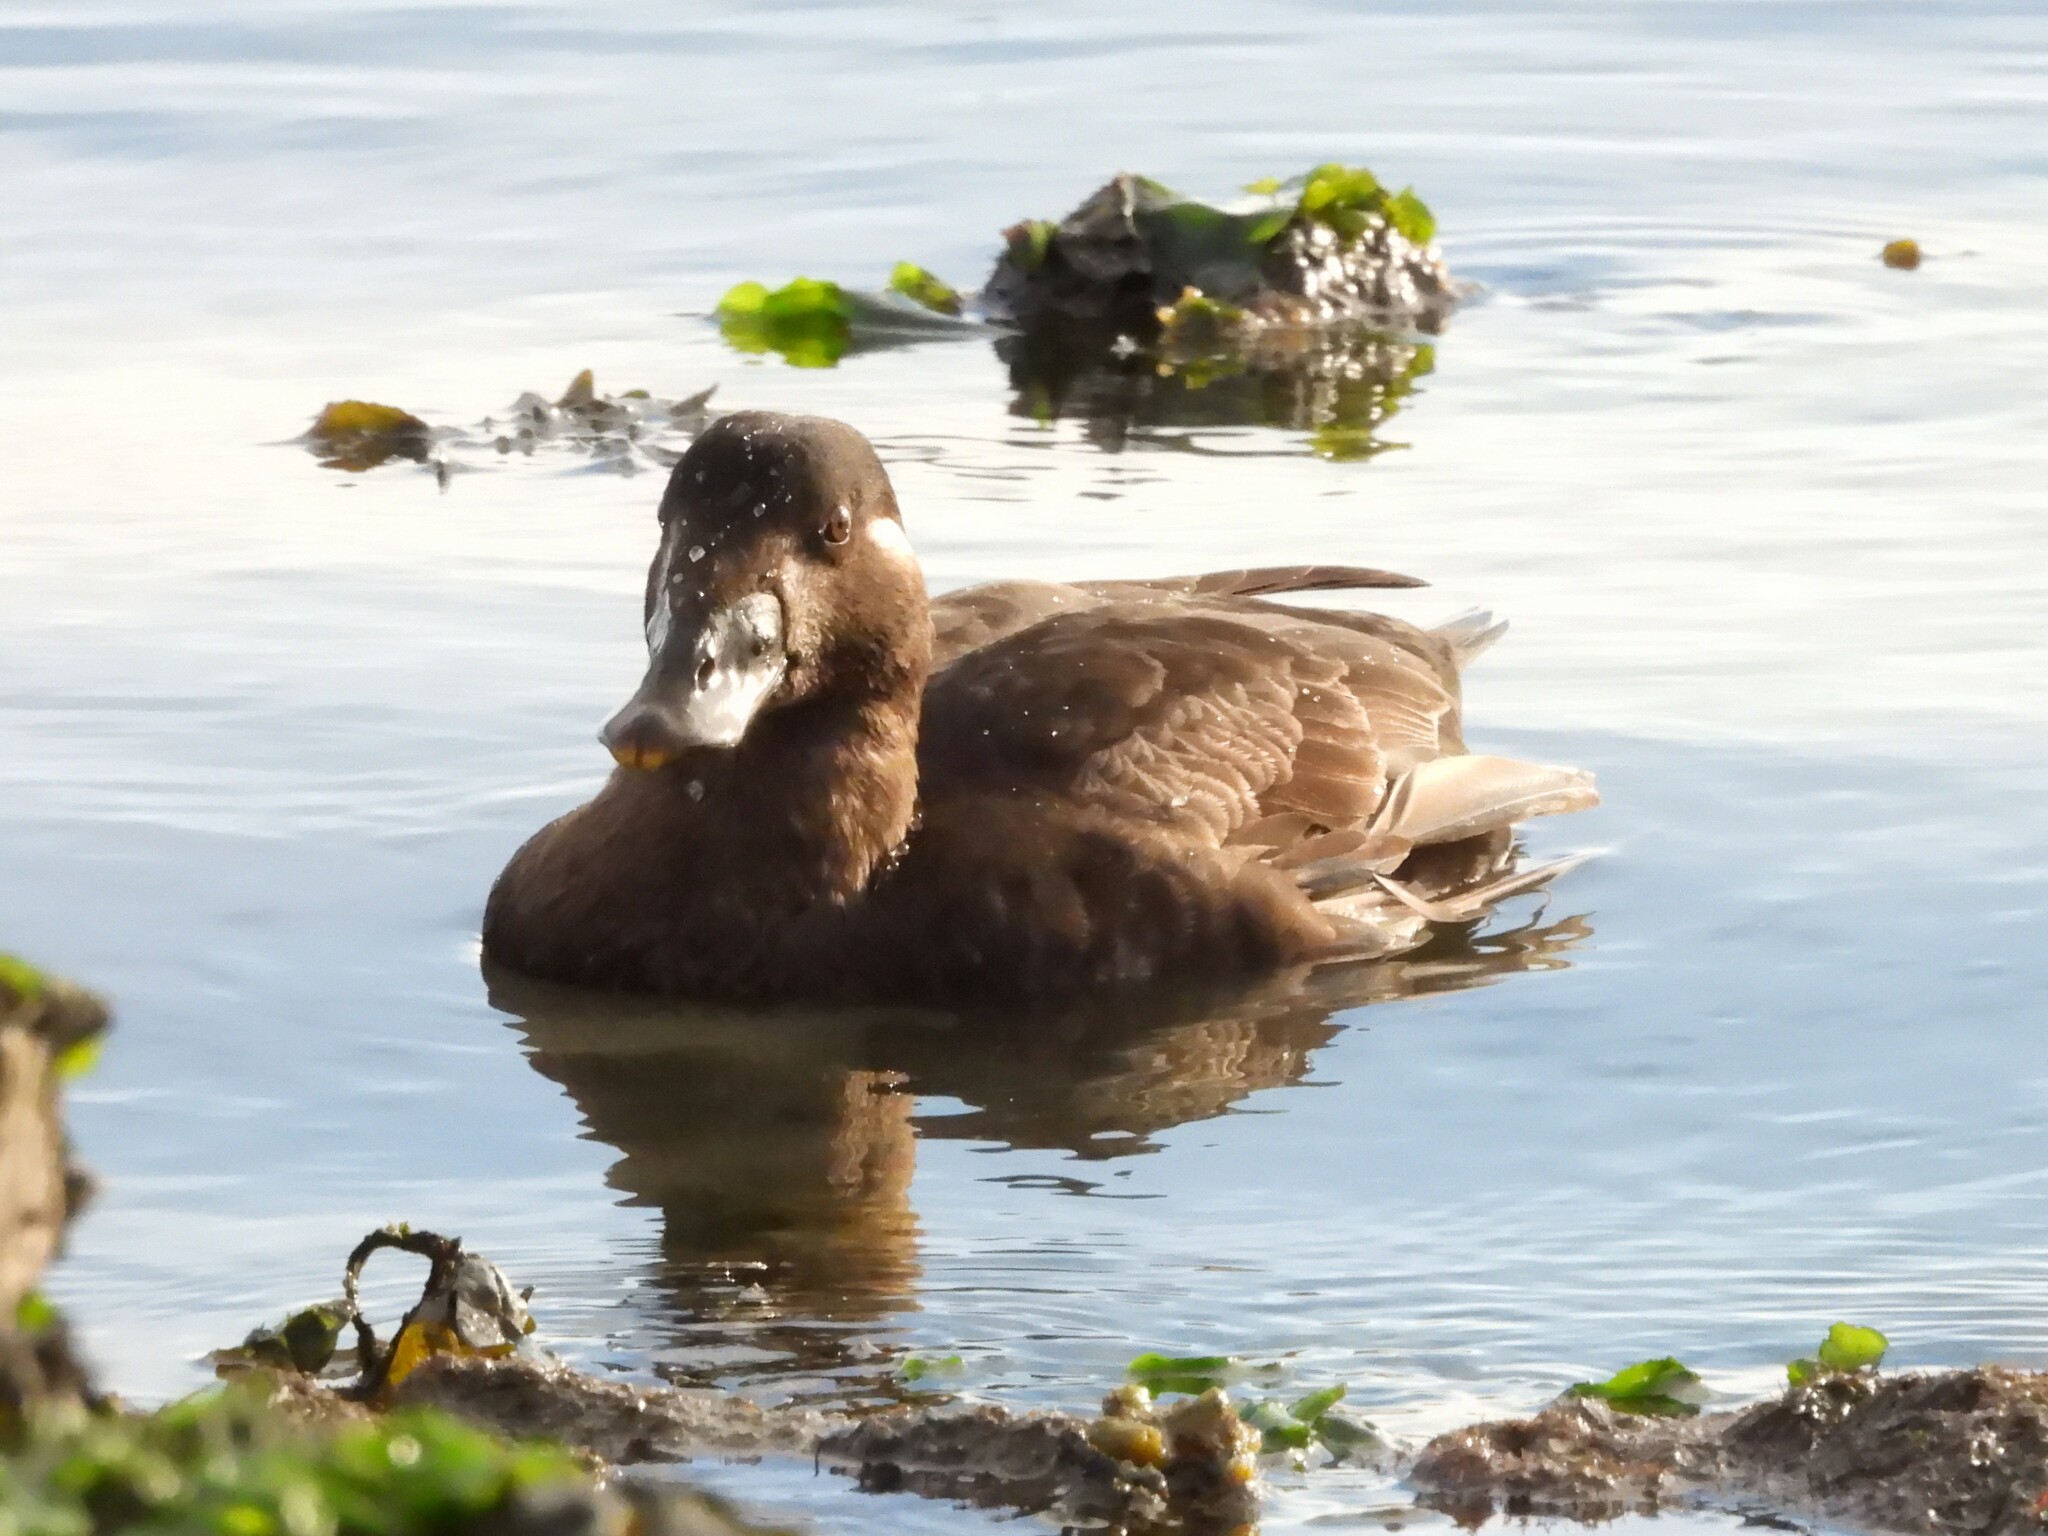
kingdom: Animalia
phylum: Chordata
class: Aves
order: Anseriformes
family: Anatidae
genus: Melanitta
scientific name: Melanitta perspicillata
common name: Surf scoter
